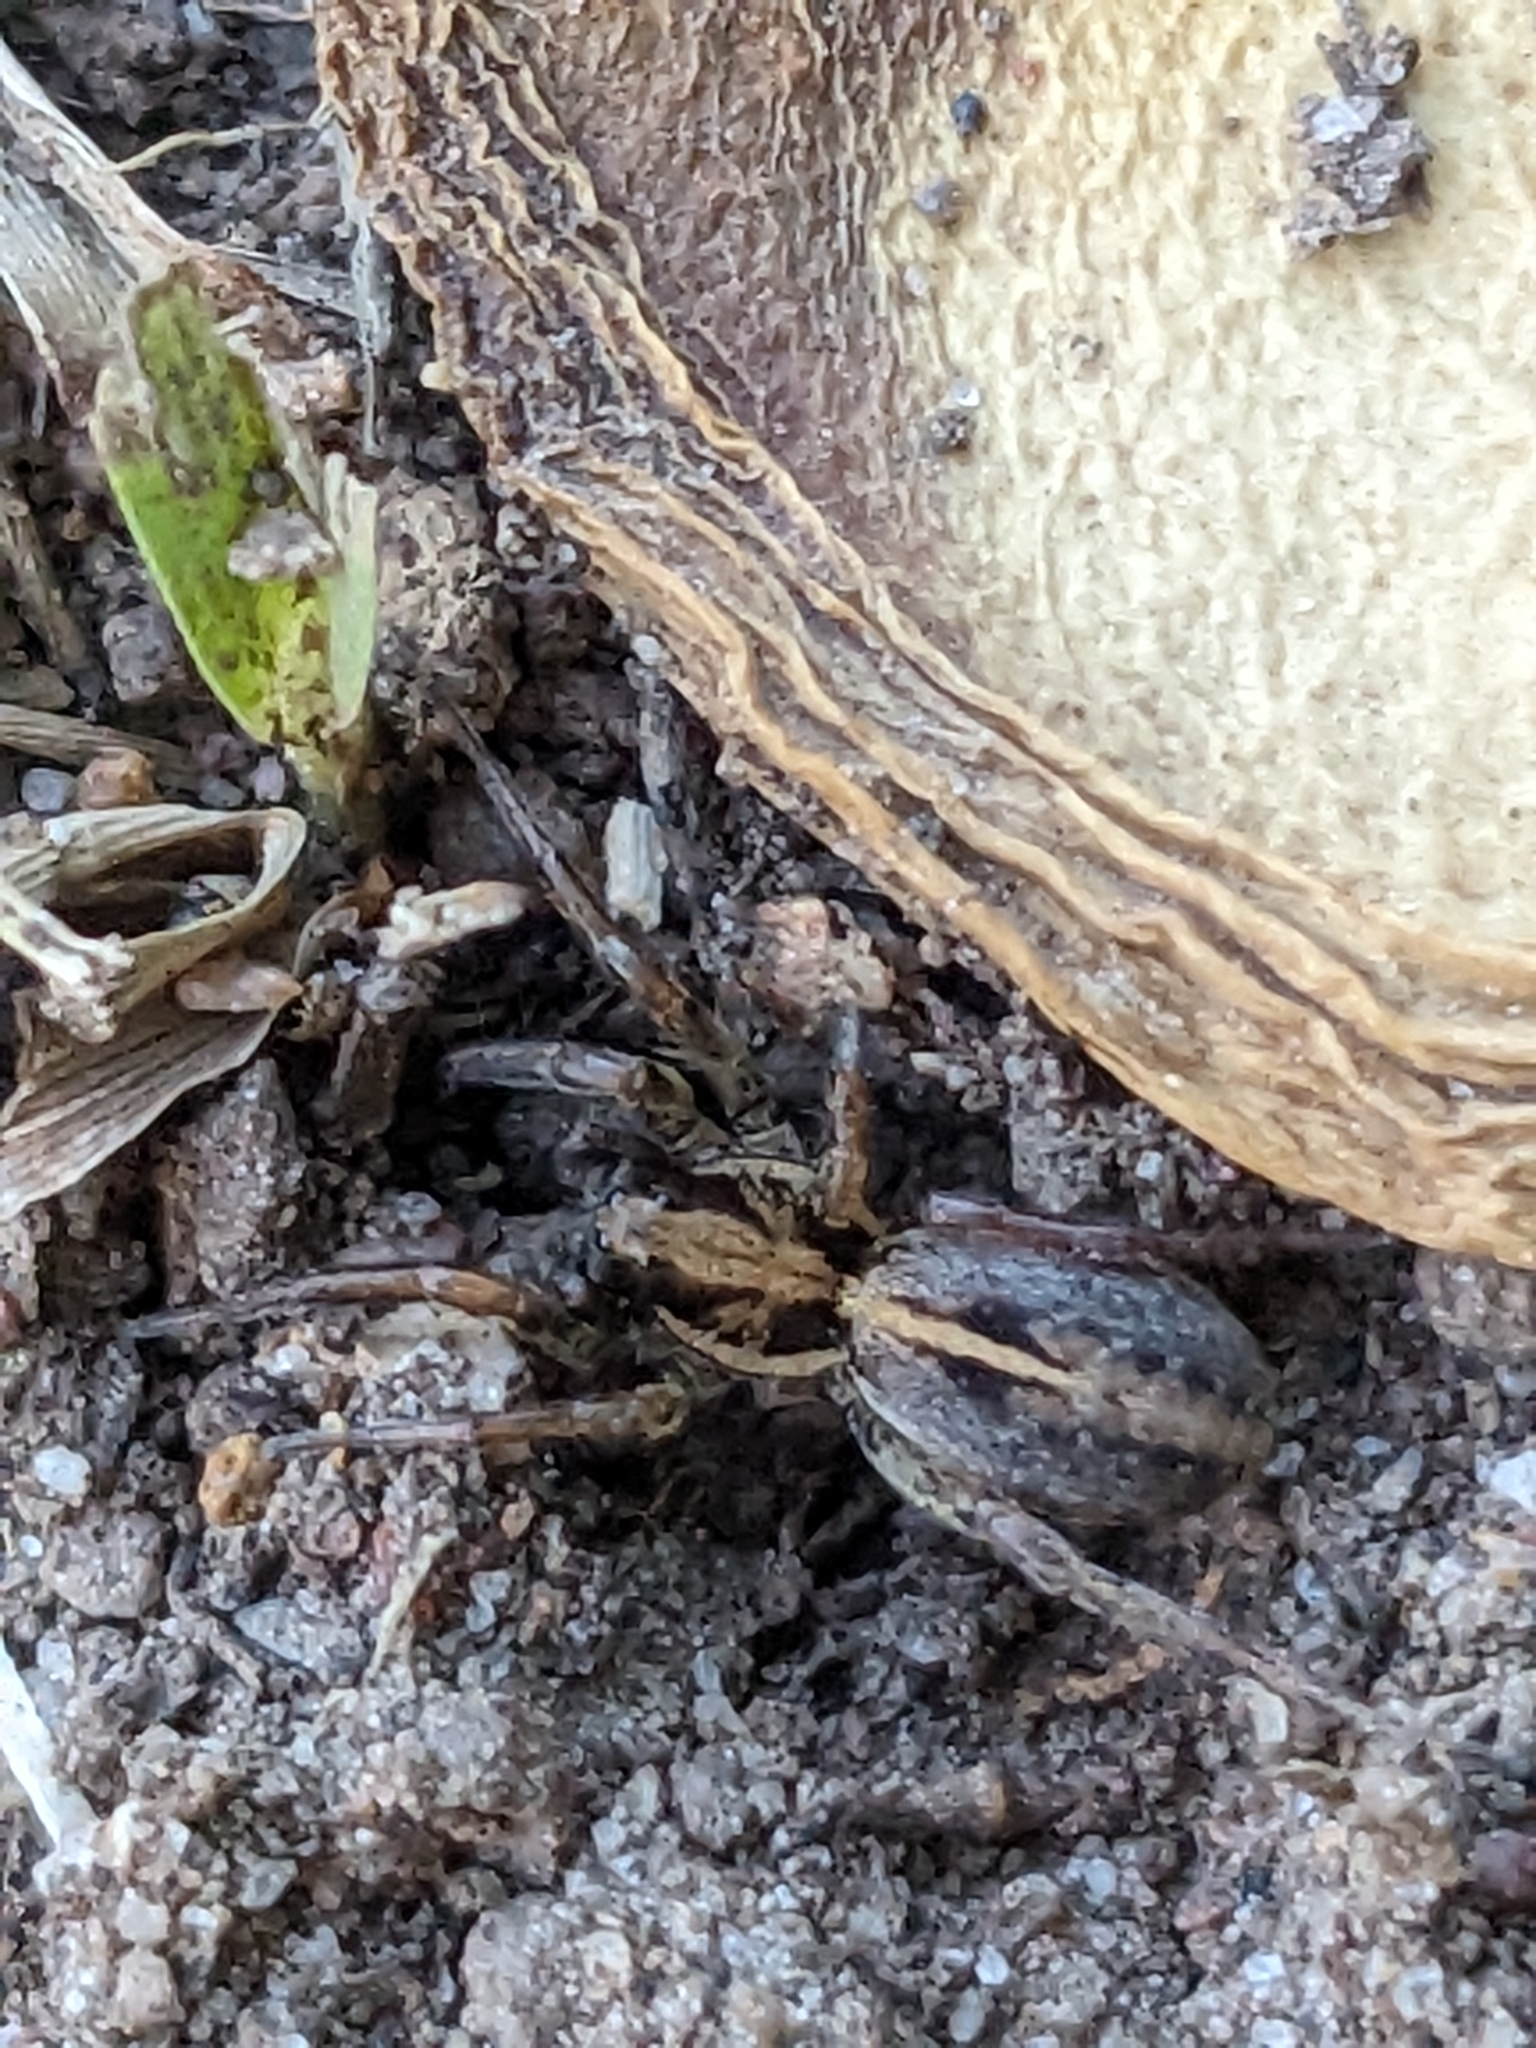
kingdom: Animalia
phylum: Arthropoda
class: Arachnida
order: Araneae
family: Lycosidae
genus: Artoriopsis
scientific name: Artoriopsis melissae
